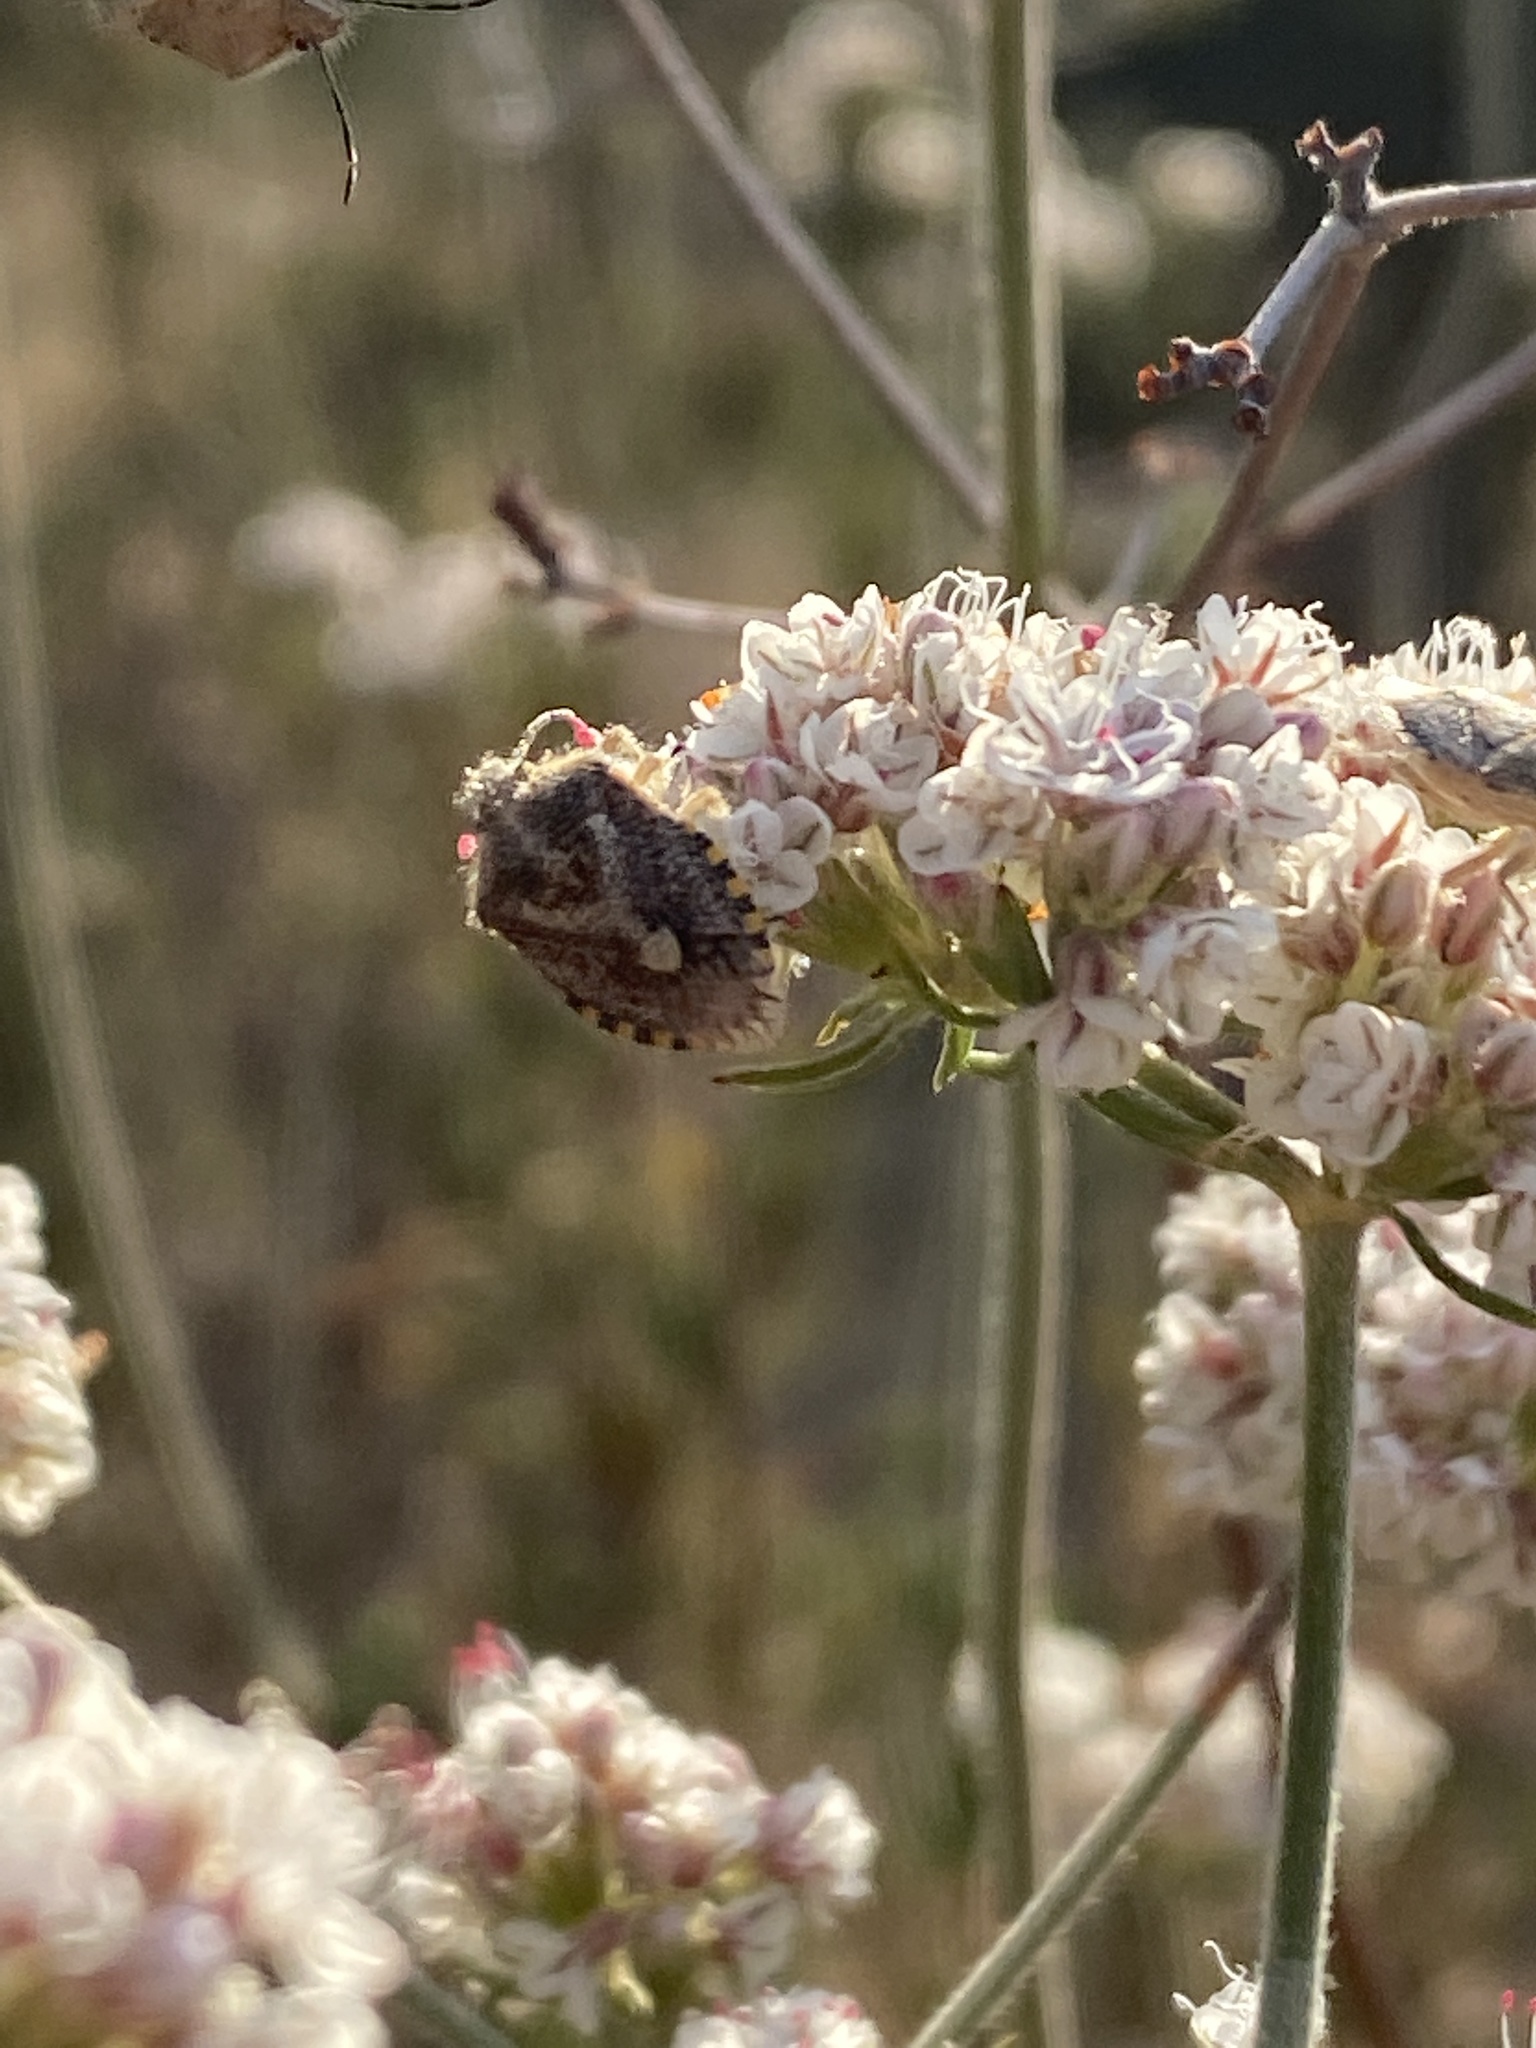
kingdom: Animalia
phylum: Arthropoda
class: Insecta
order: Hemiptera
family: Pentatomidae
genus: Agonoscelis
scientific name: Agonoscelis puberula
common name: African cluster bug
